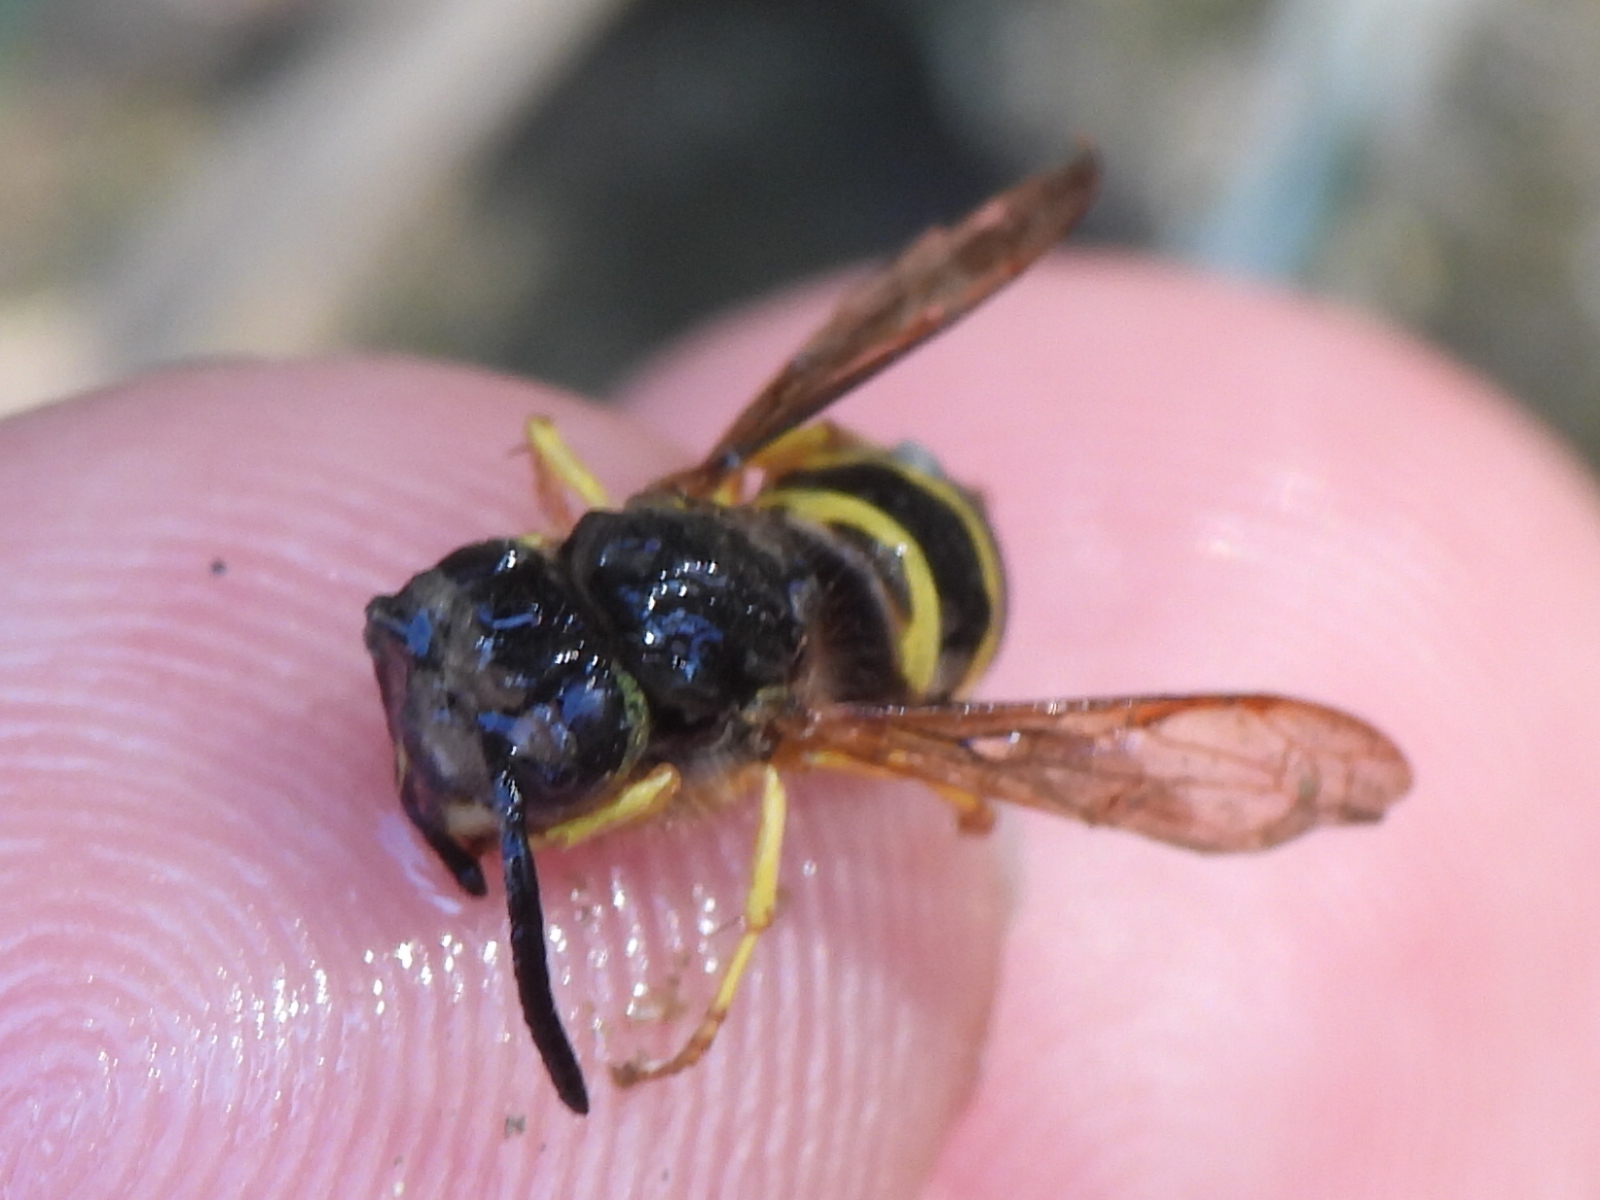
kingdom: Animalia
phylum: Arthropoda
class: Insecta
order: Hymenoptera
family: Vespidae
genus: Vespula
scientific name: Vespula maculifrons
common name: Eastern yellowjacket
